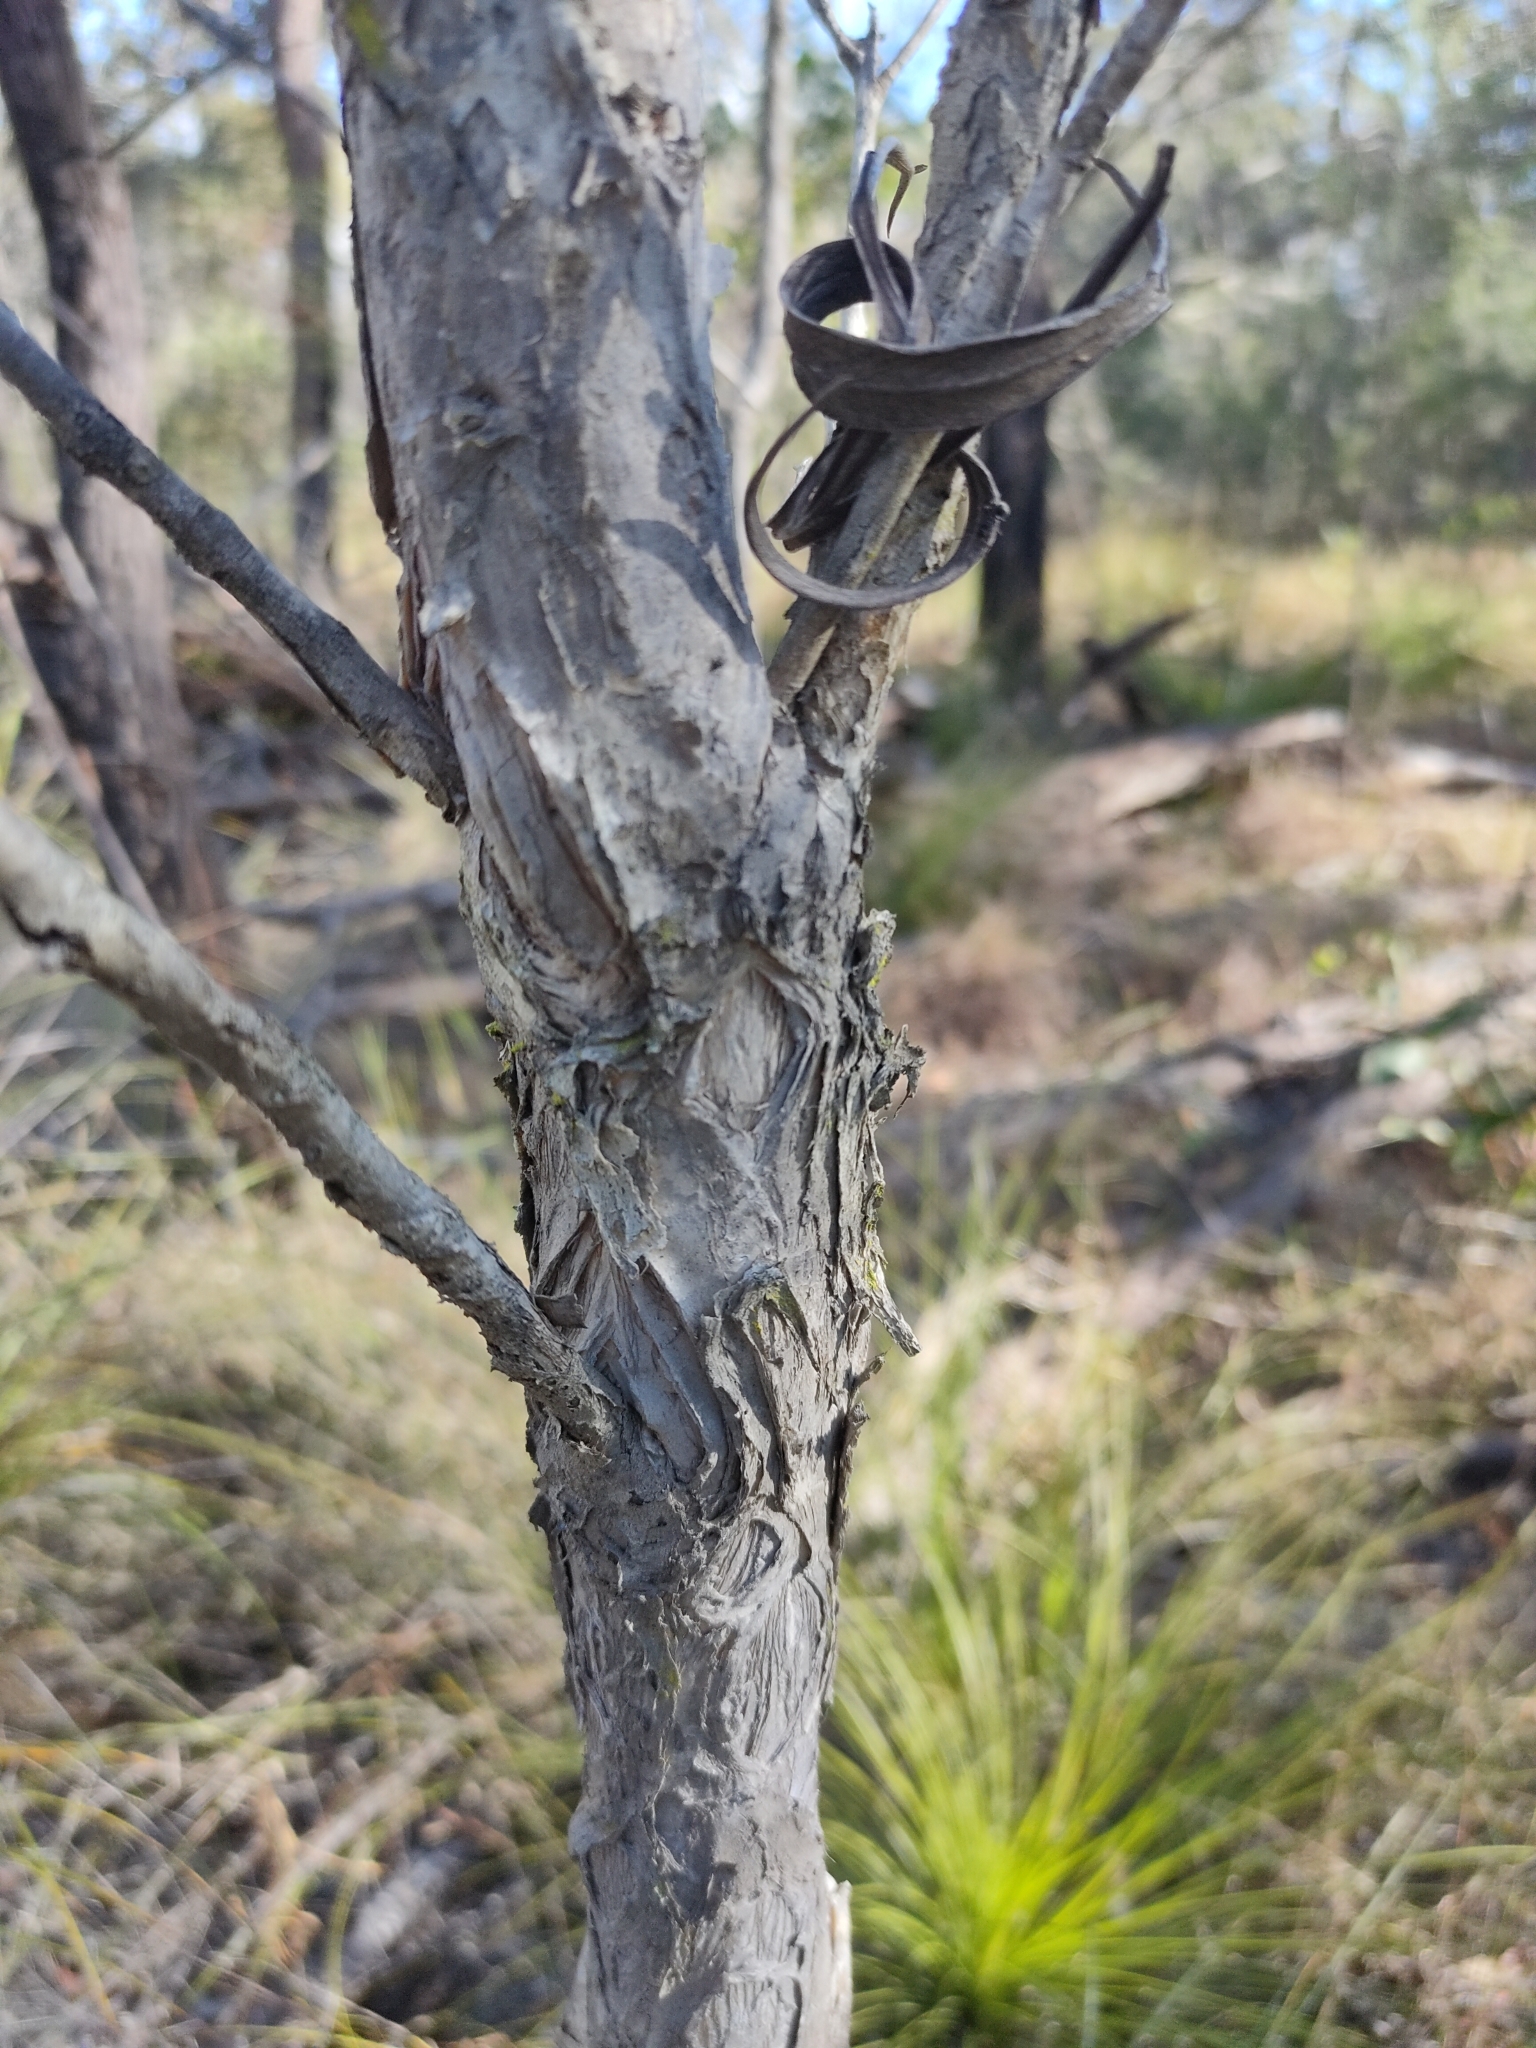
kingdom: Plantae
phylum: Tracheophyta
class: Magnoliopsida
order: Myrtales
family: Myrtaceae
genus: Melaleuca
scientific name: Melaleuca quinquenervia
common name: Punktree
